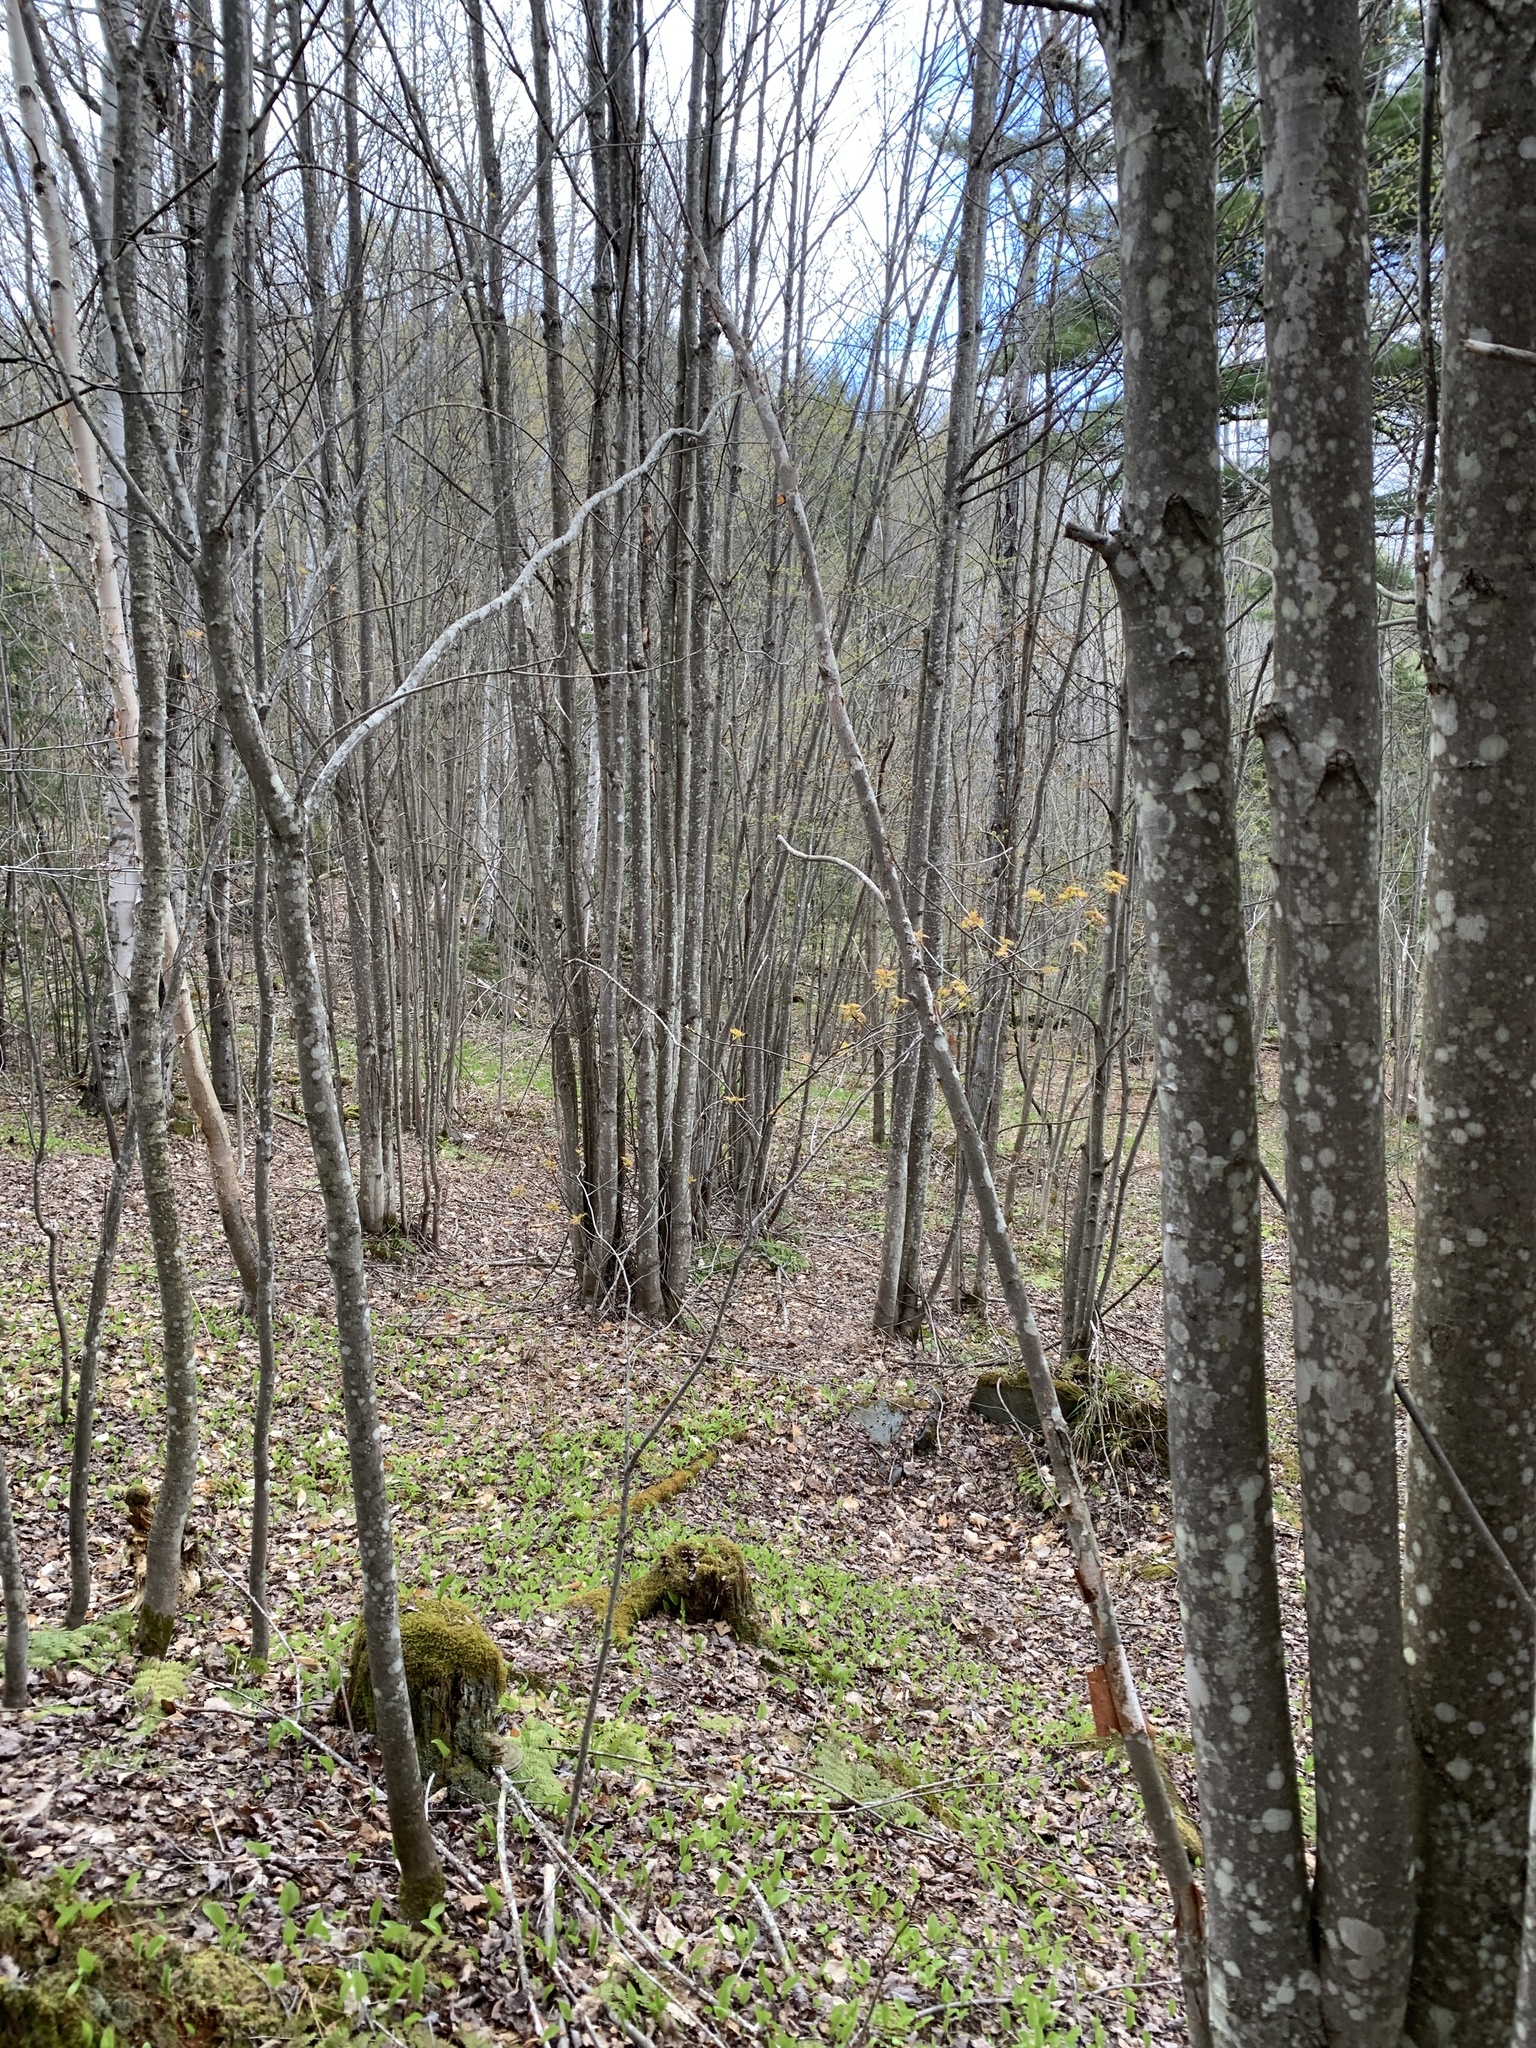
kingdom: Plantae
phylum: Tracheophyta
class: Magnoliopsida
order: Sapindales
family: Sapindaceae
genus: Acer
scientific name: Acer rubrum
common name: Red maple
